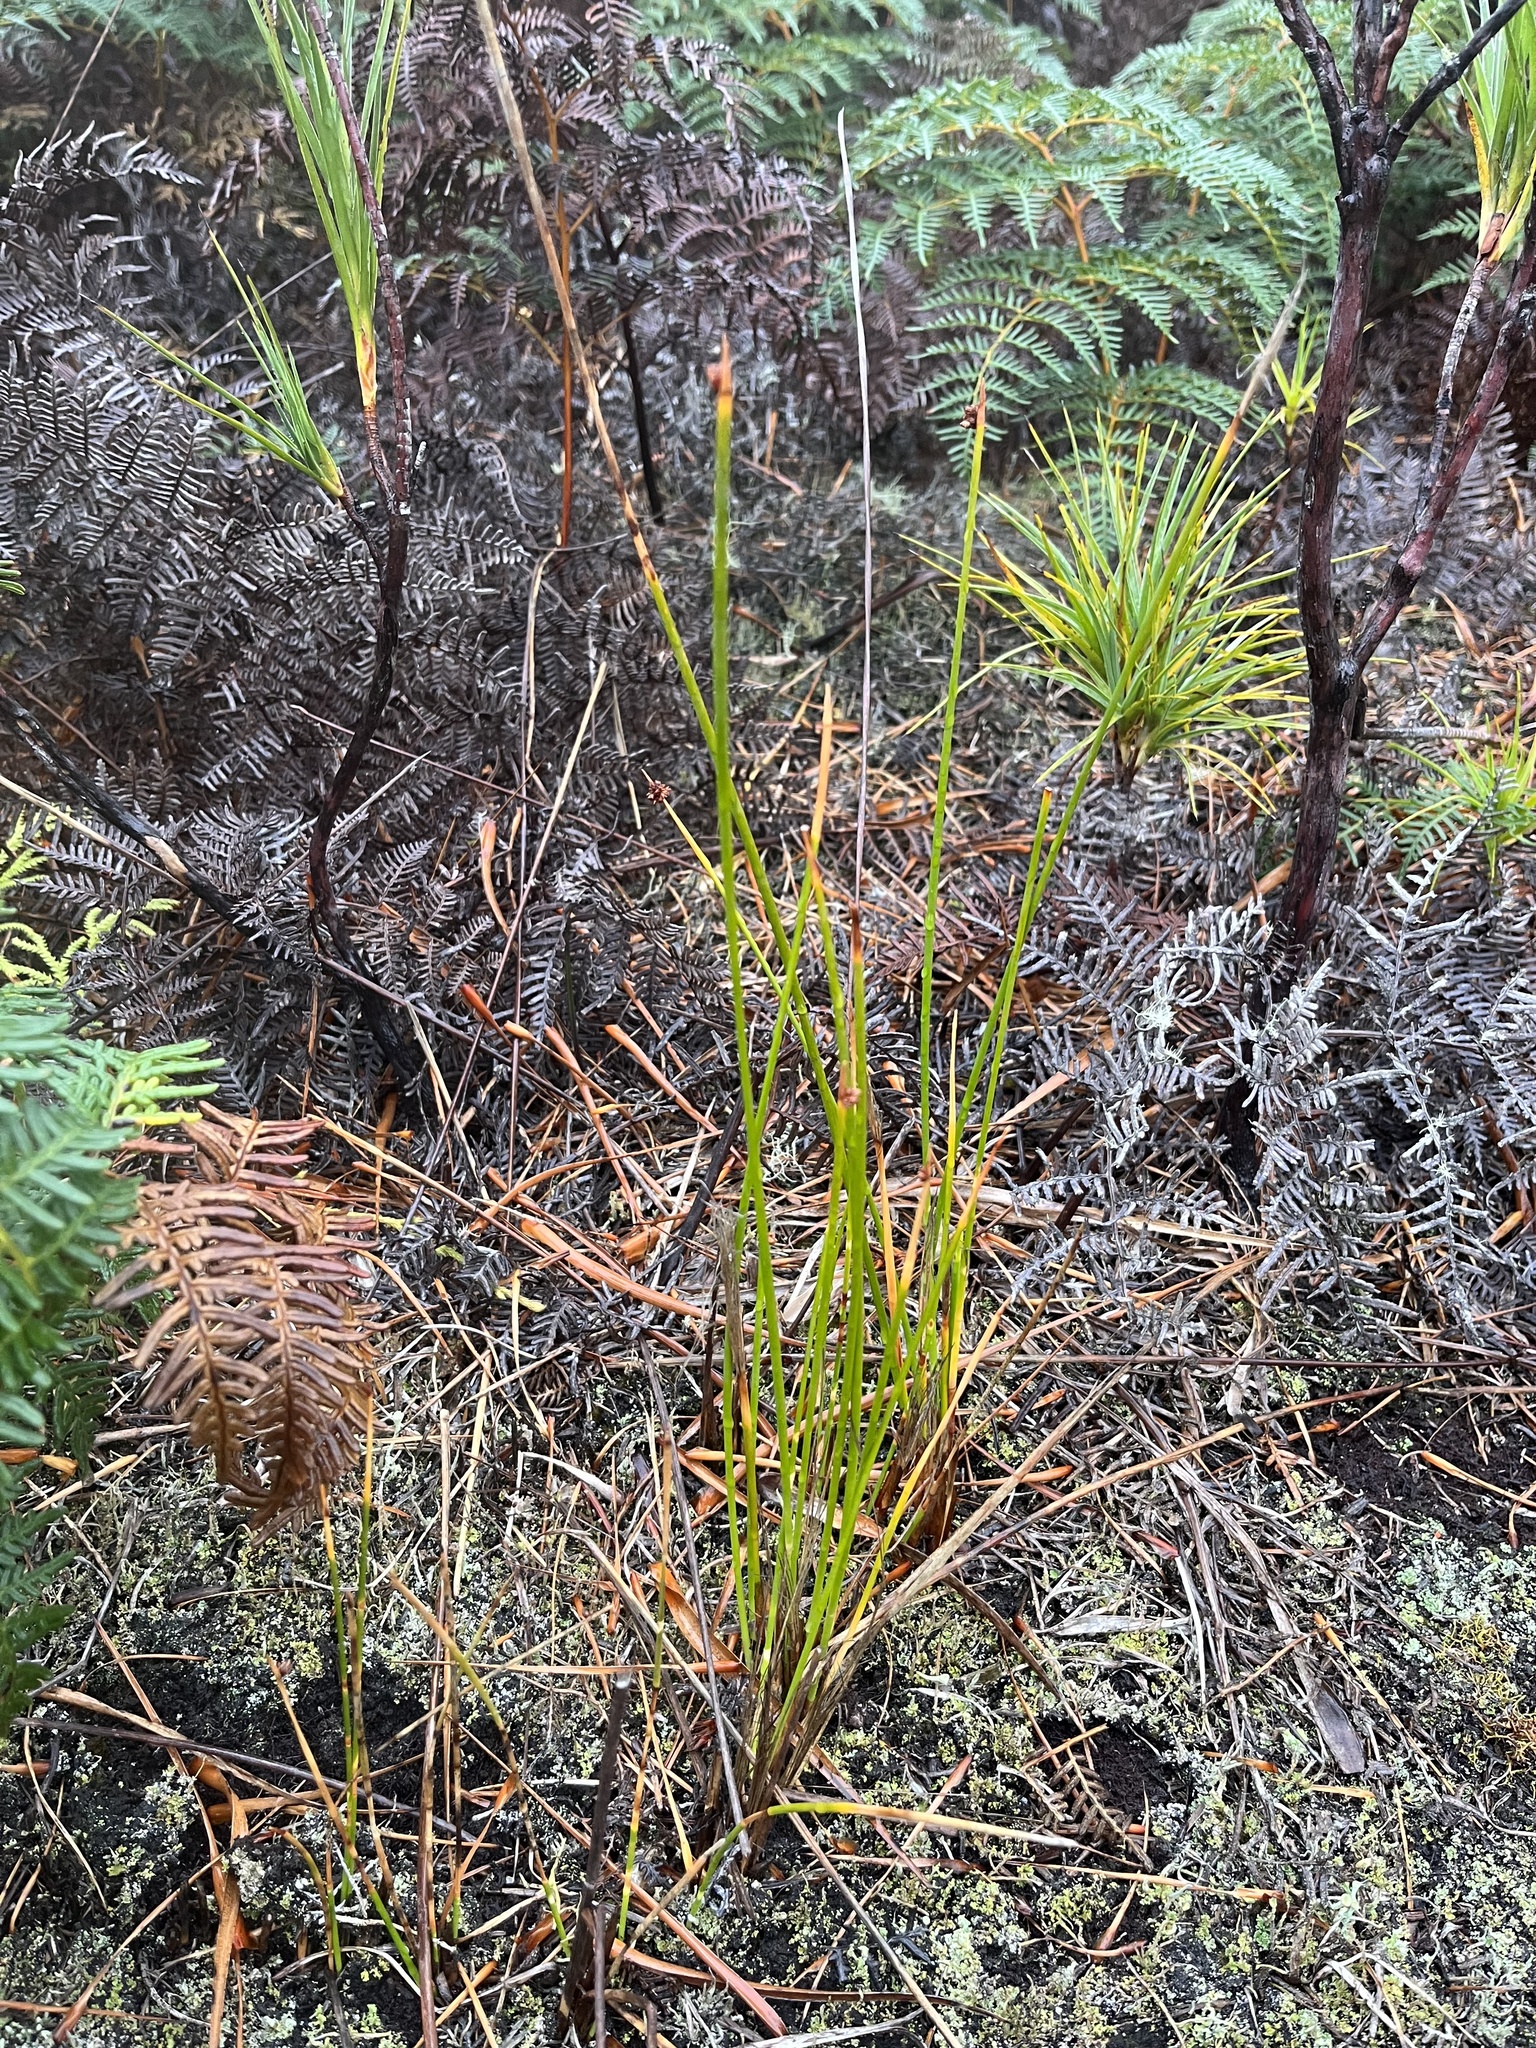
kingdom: Plantae
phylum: Tracheophyta
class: Liliopsida
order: Poales
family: Cyperaceae
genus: Ficinia
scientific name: Ficinia nodosa
